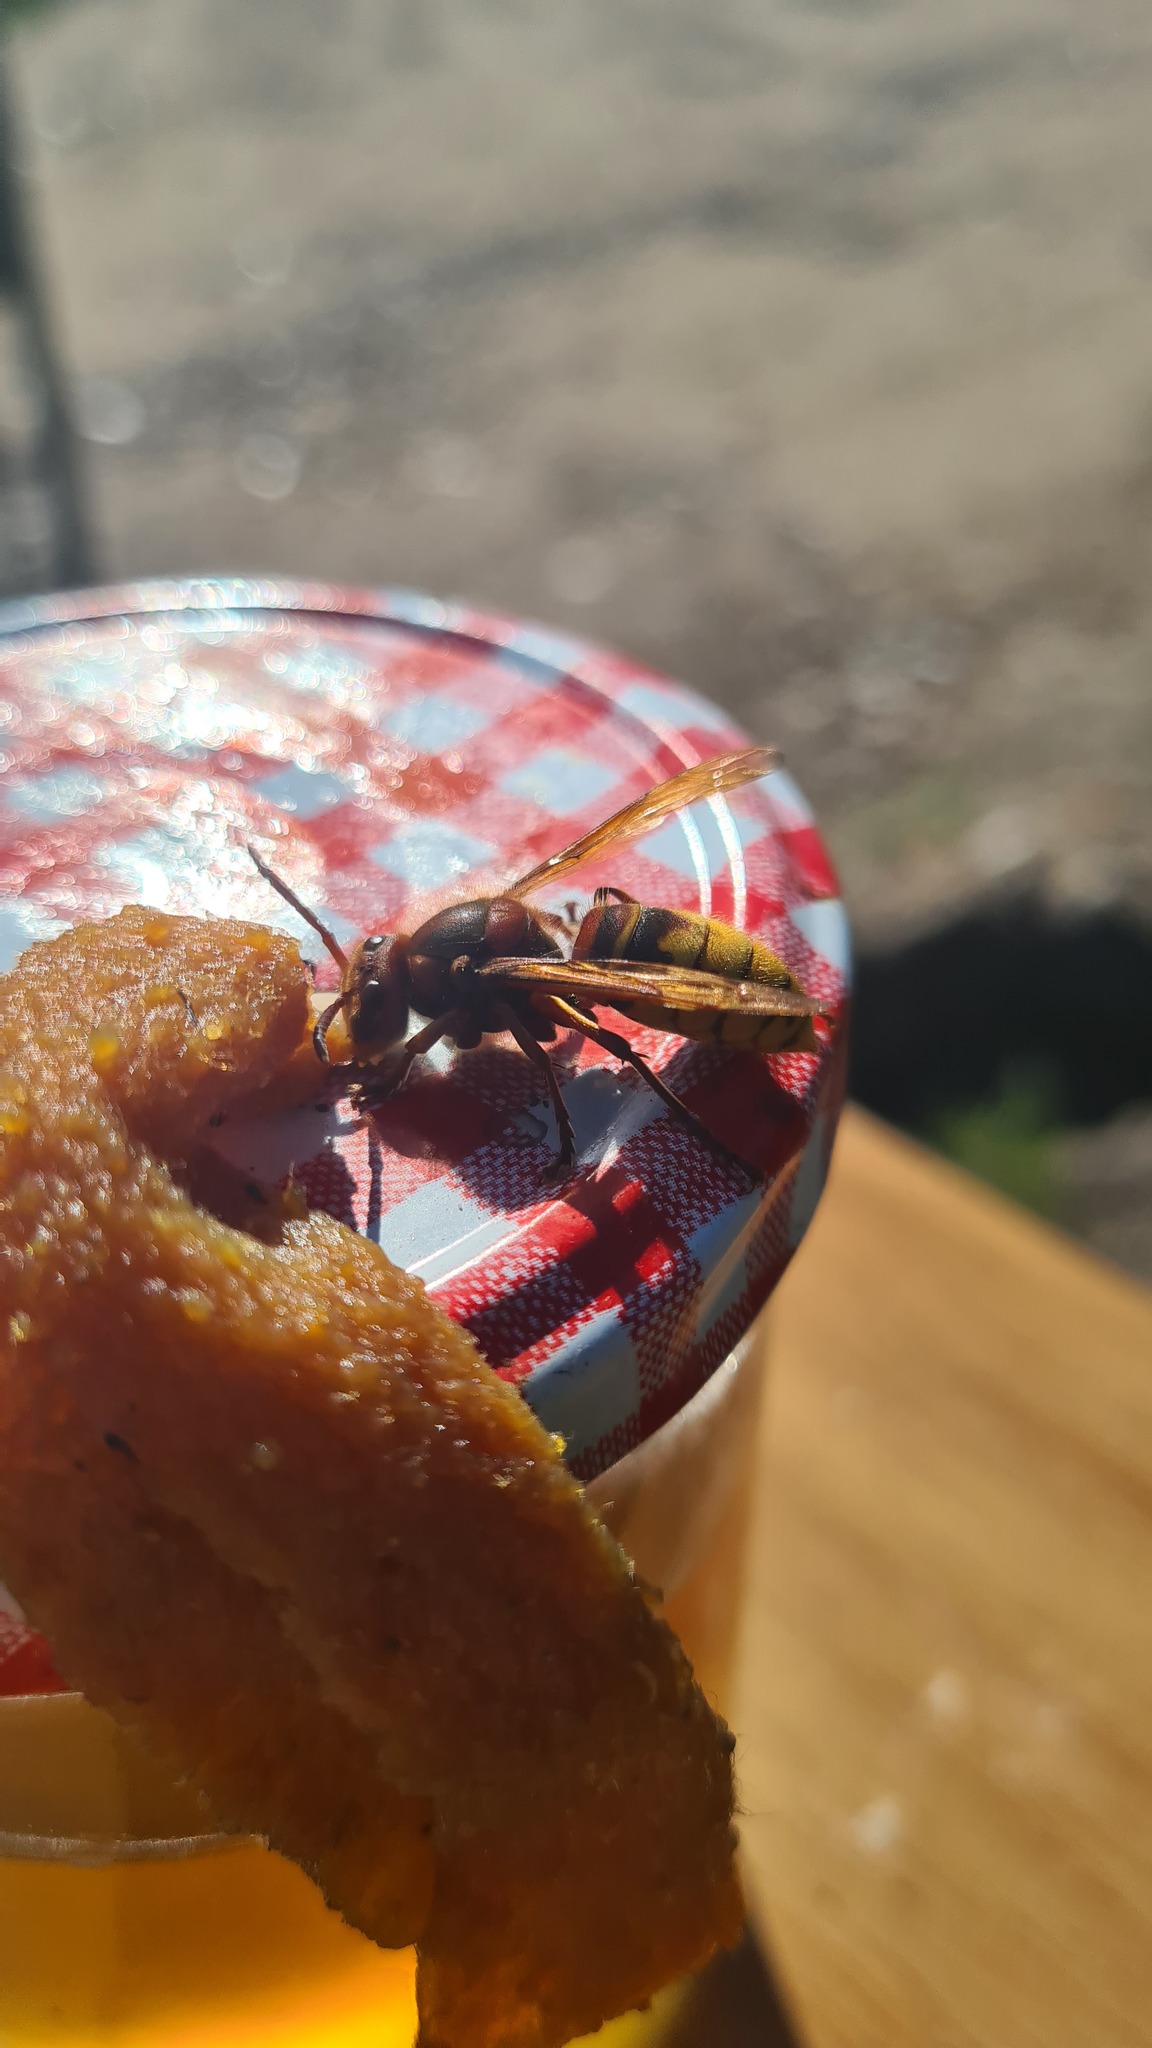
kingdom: Animalia
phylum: Arthropoda
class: Insecta
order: Hymenoptera
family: Vespidae
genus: Vespa
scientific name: Vespa crabro
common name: Hornet
